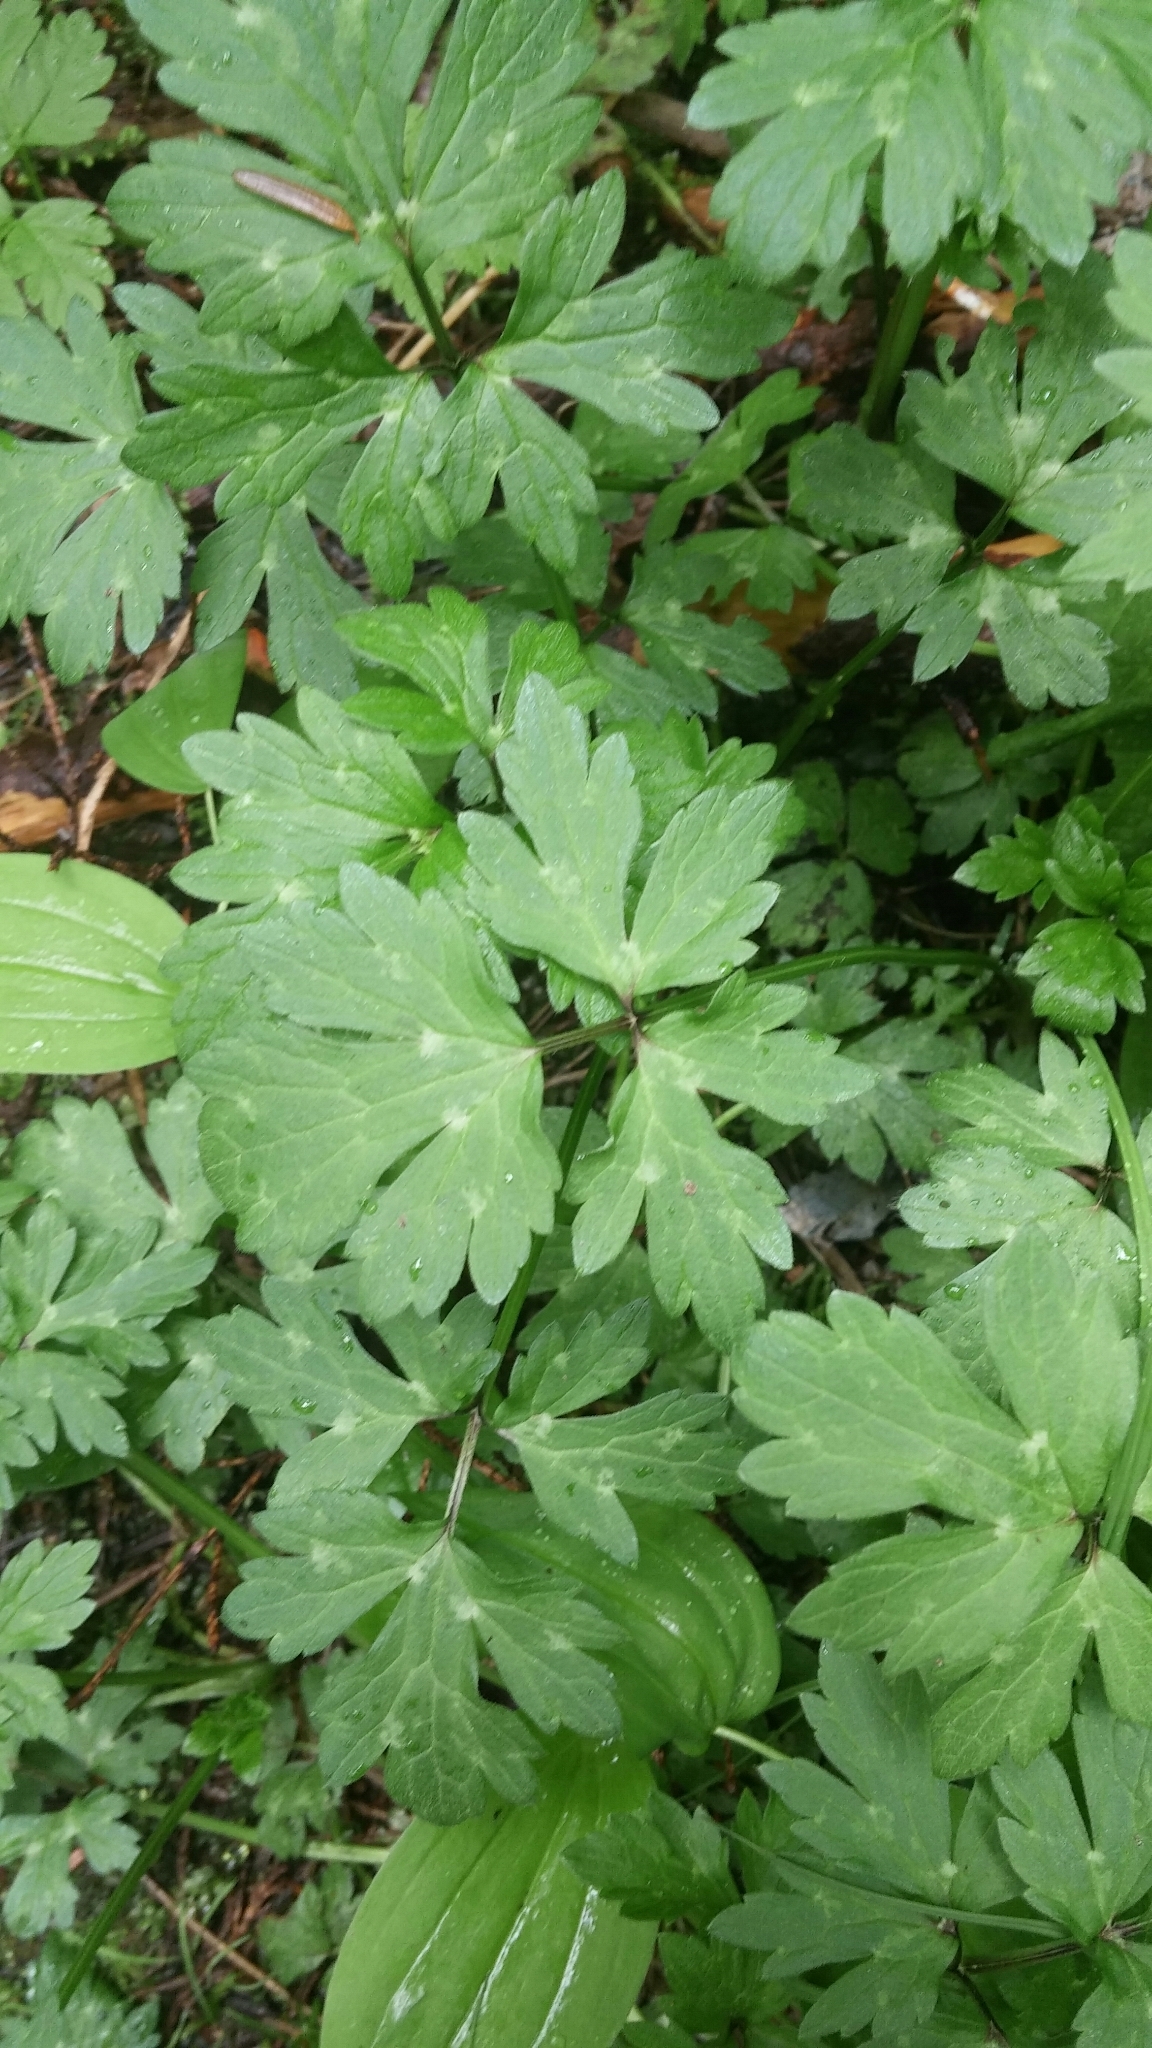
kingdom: Plantae
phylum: Tracheophyta
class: Magnoliopsida
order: Ranunculales
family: Ranunculaceae
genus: Ranunculus
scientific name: Ranunculus repens
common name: Creeping buttercup
